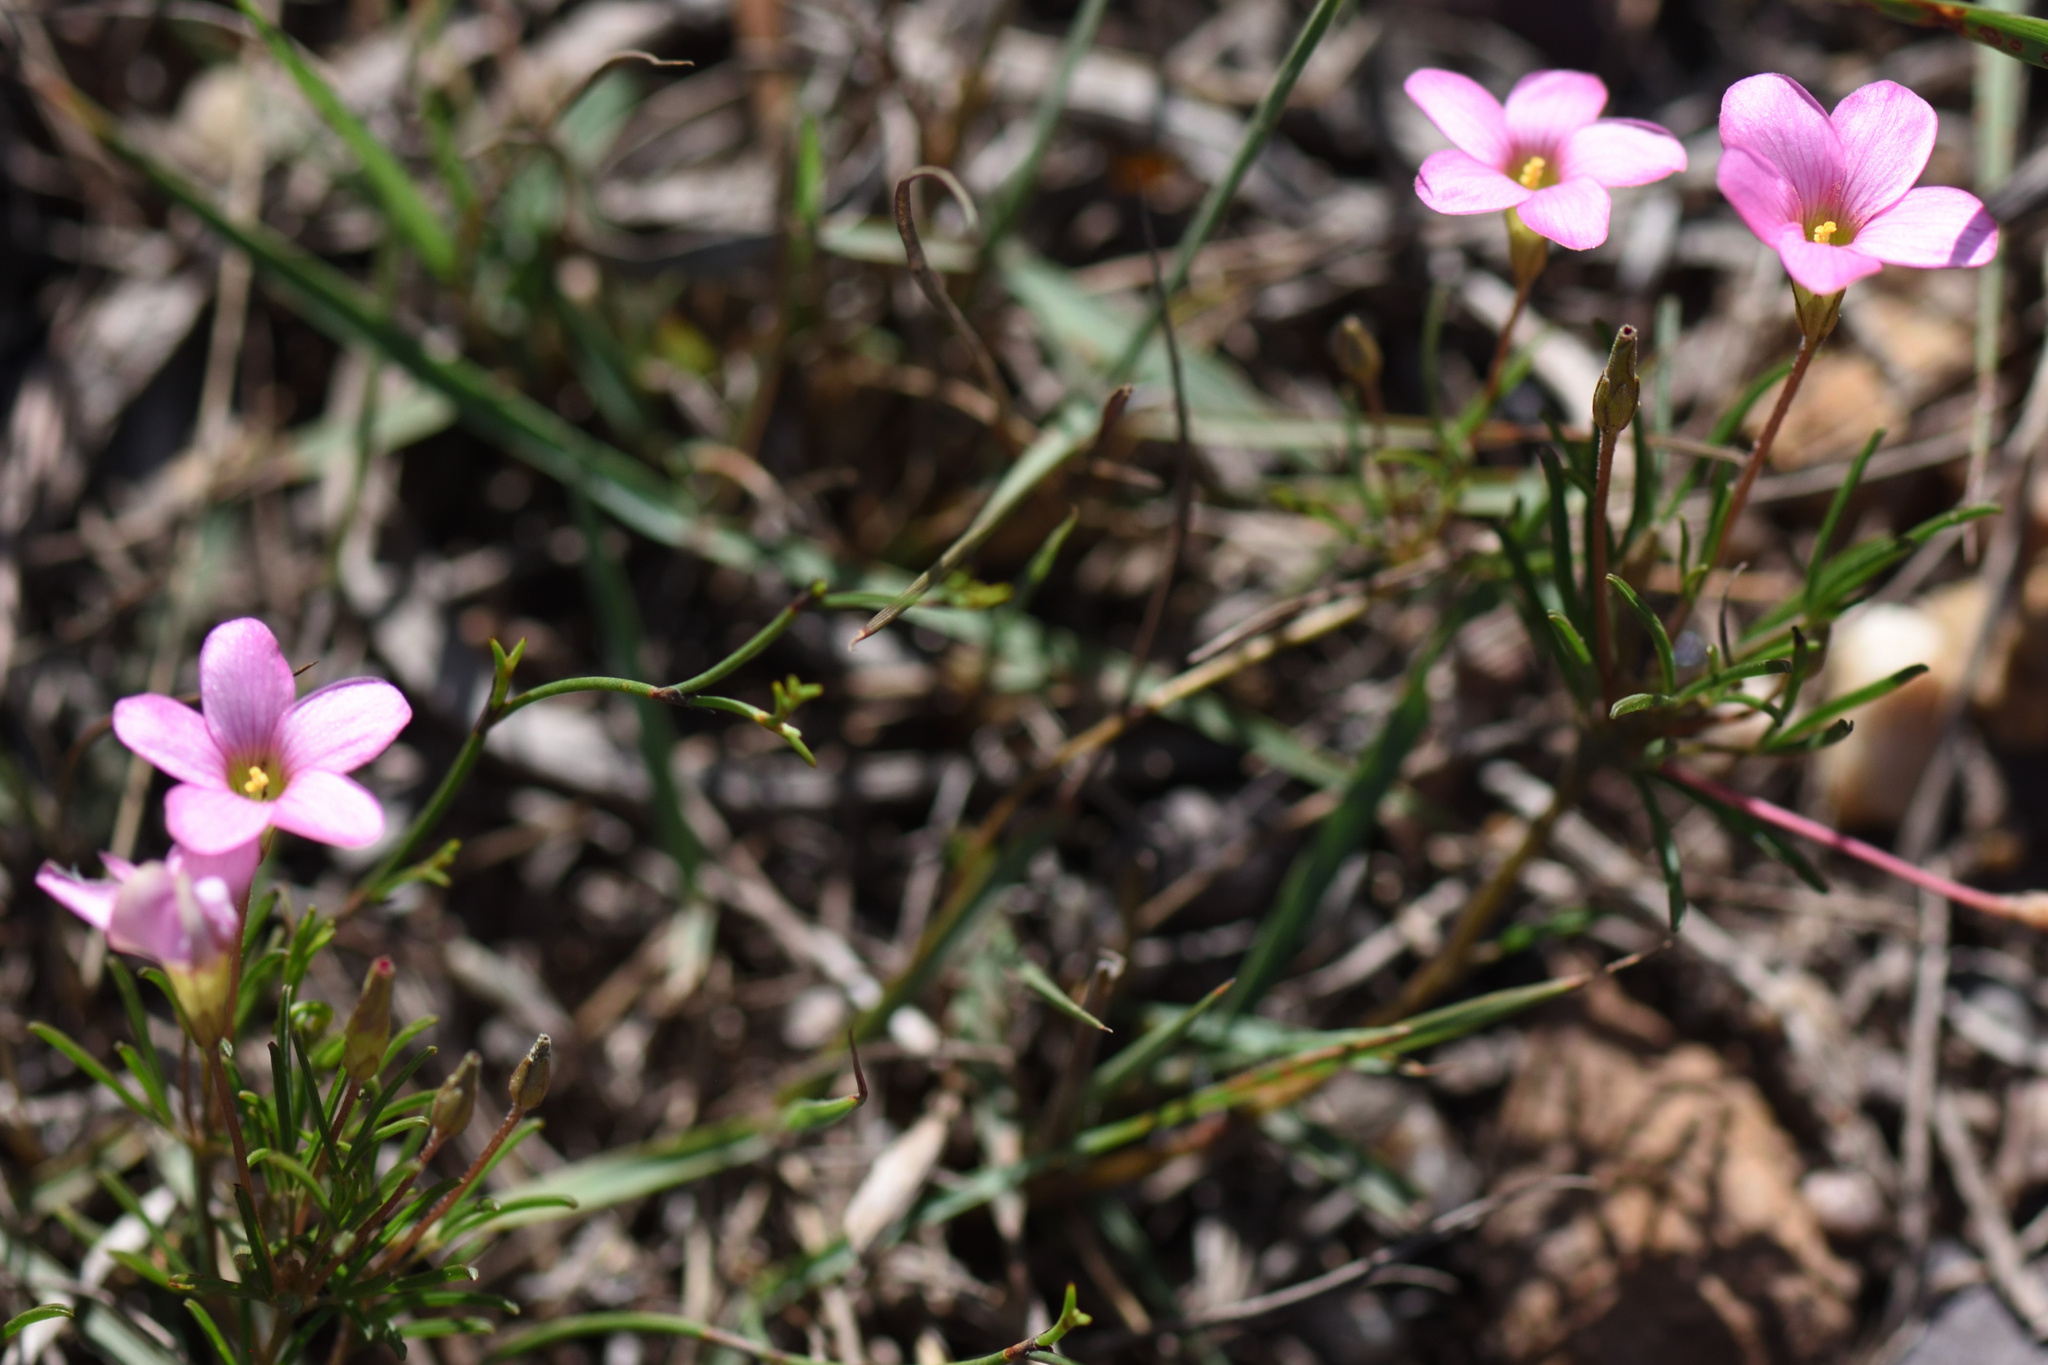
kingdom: Plantae
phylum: Tracheophyta
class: Magnoliopsida
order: Oxalidales
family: Oxalidaceae
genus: Oxalis
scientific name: Oxalis polyphylla
